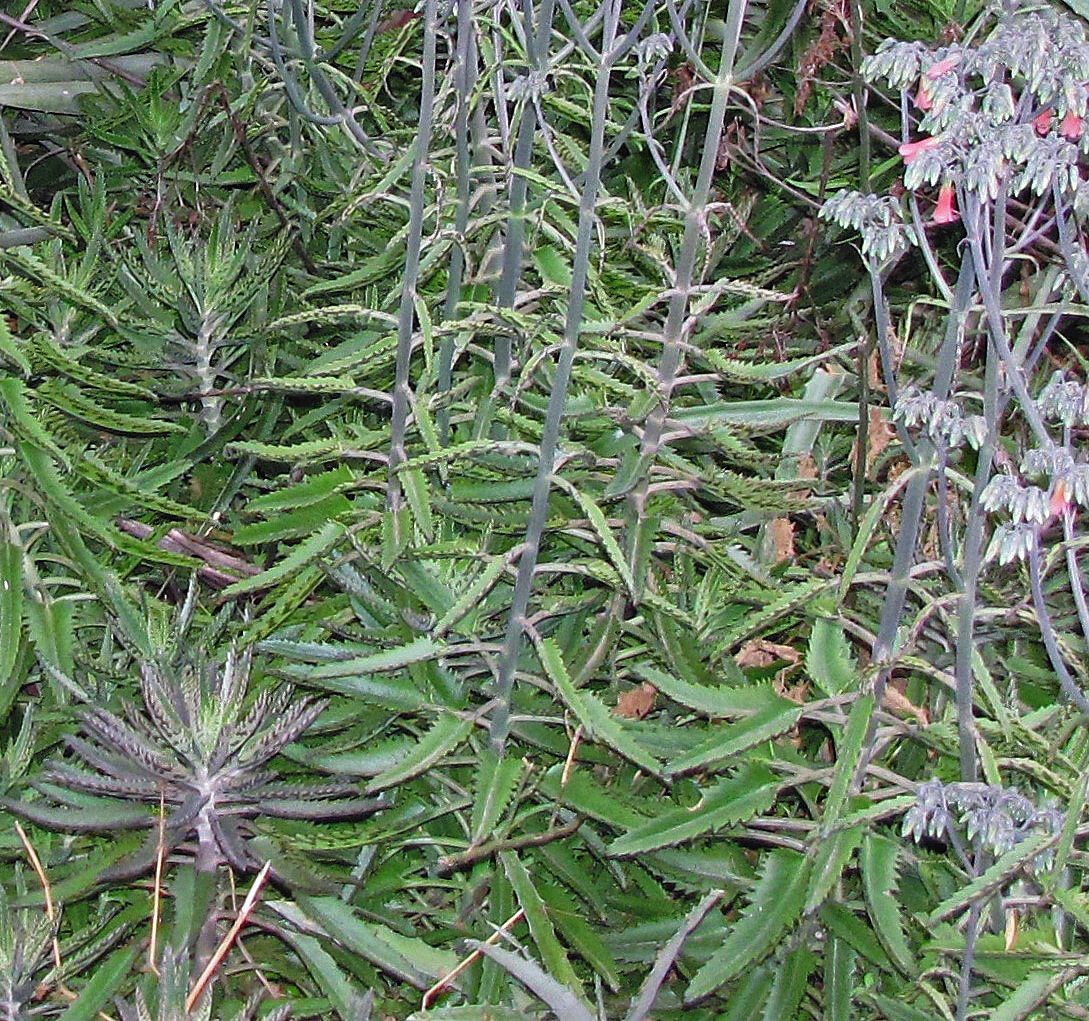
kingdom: Plantae
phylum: Tracheophyta
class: Magnoliopsida
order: Saxifragales
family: Crassulaceae
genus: Kalanchoe
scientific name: Kalanchoe houghtonii
